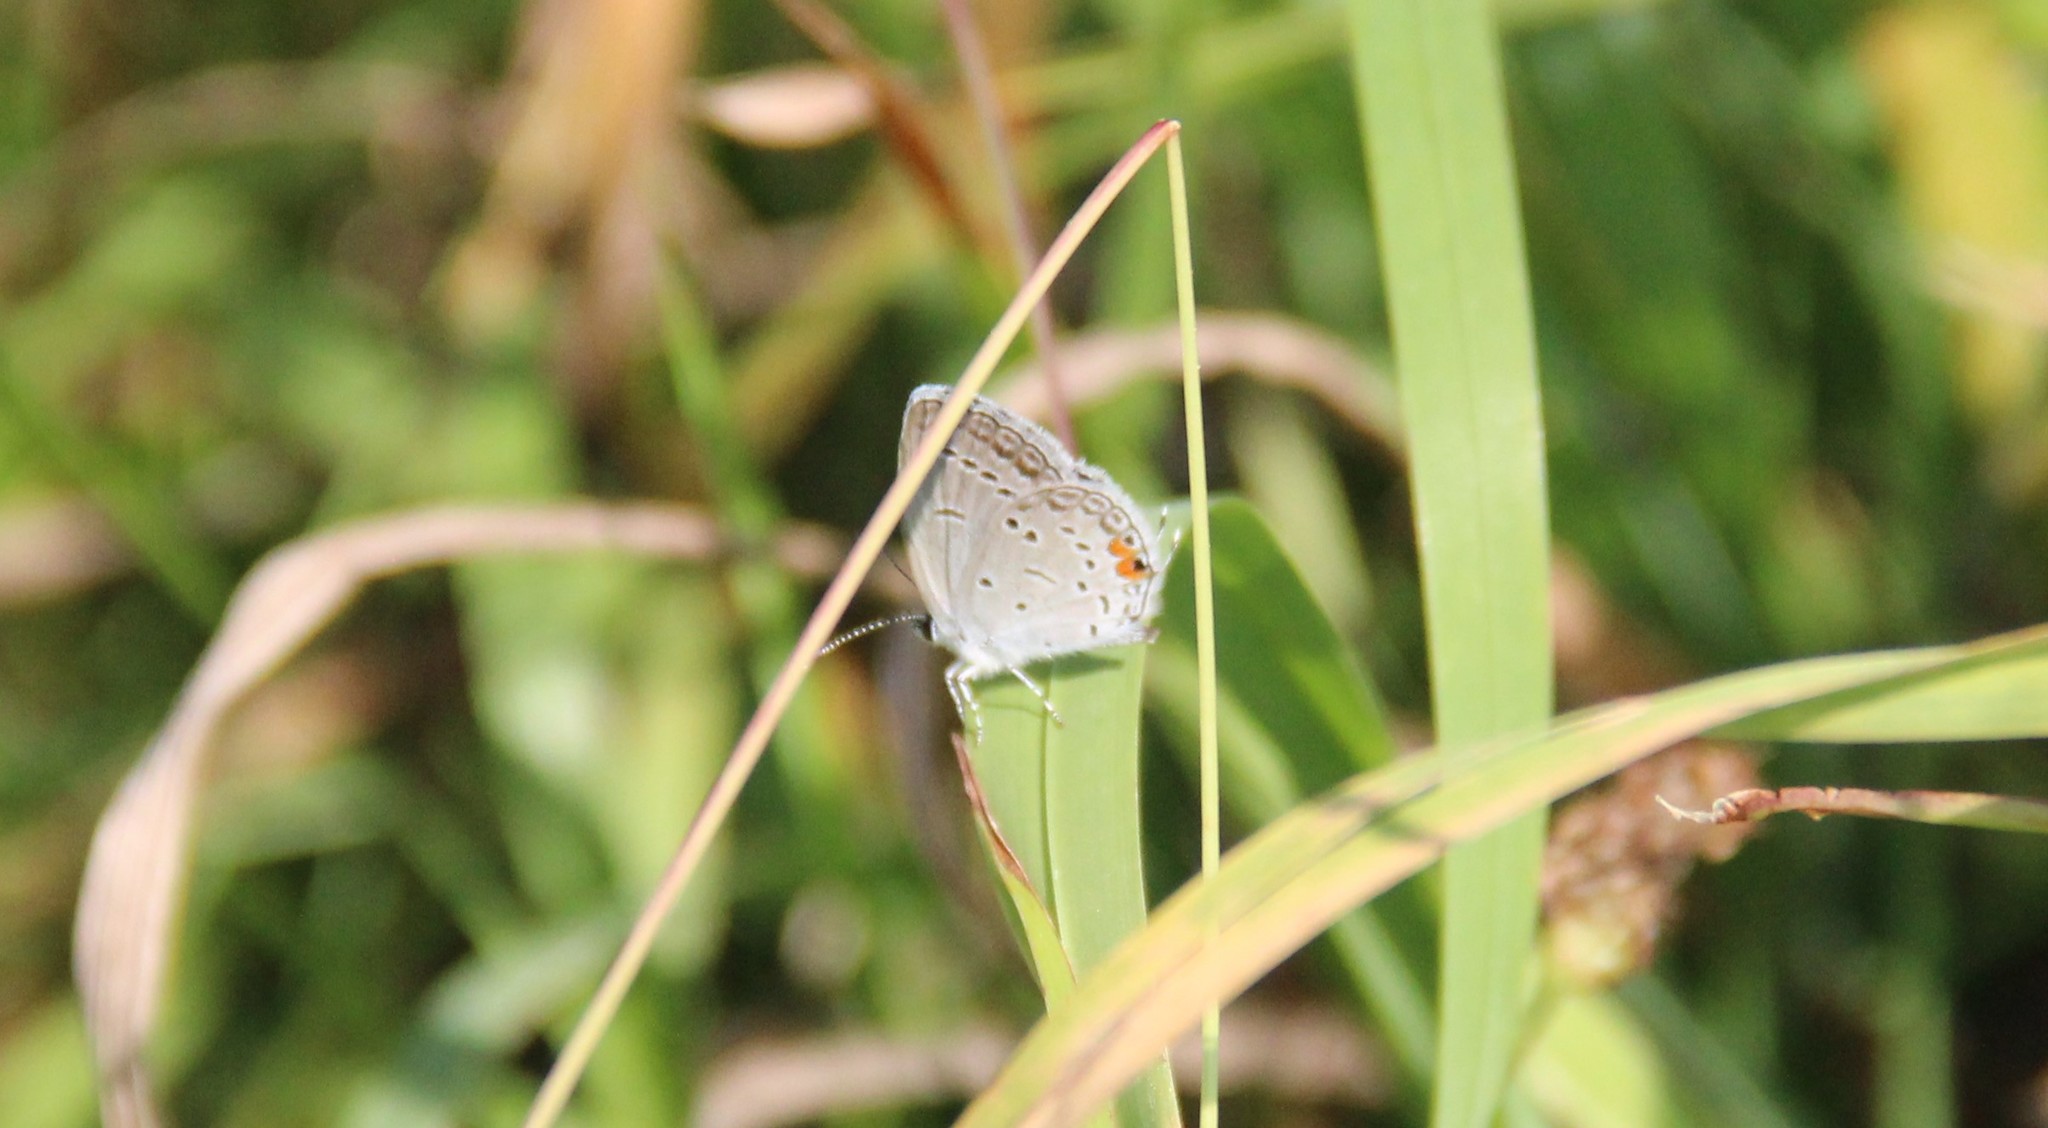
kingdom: Animalia
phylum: Arthropoda
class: Insecta
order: Lepidoptera
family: Lycaenidae
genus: Elkalyce
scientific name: Elkalyce comyntas
